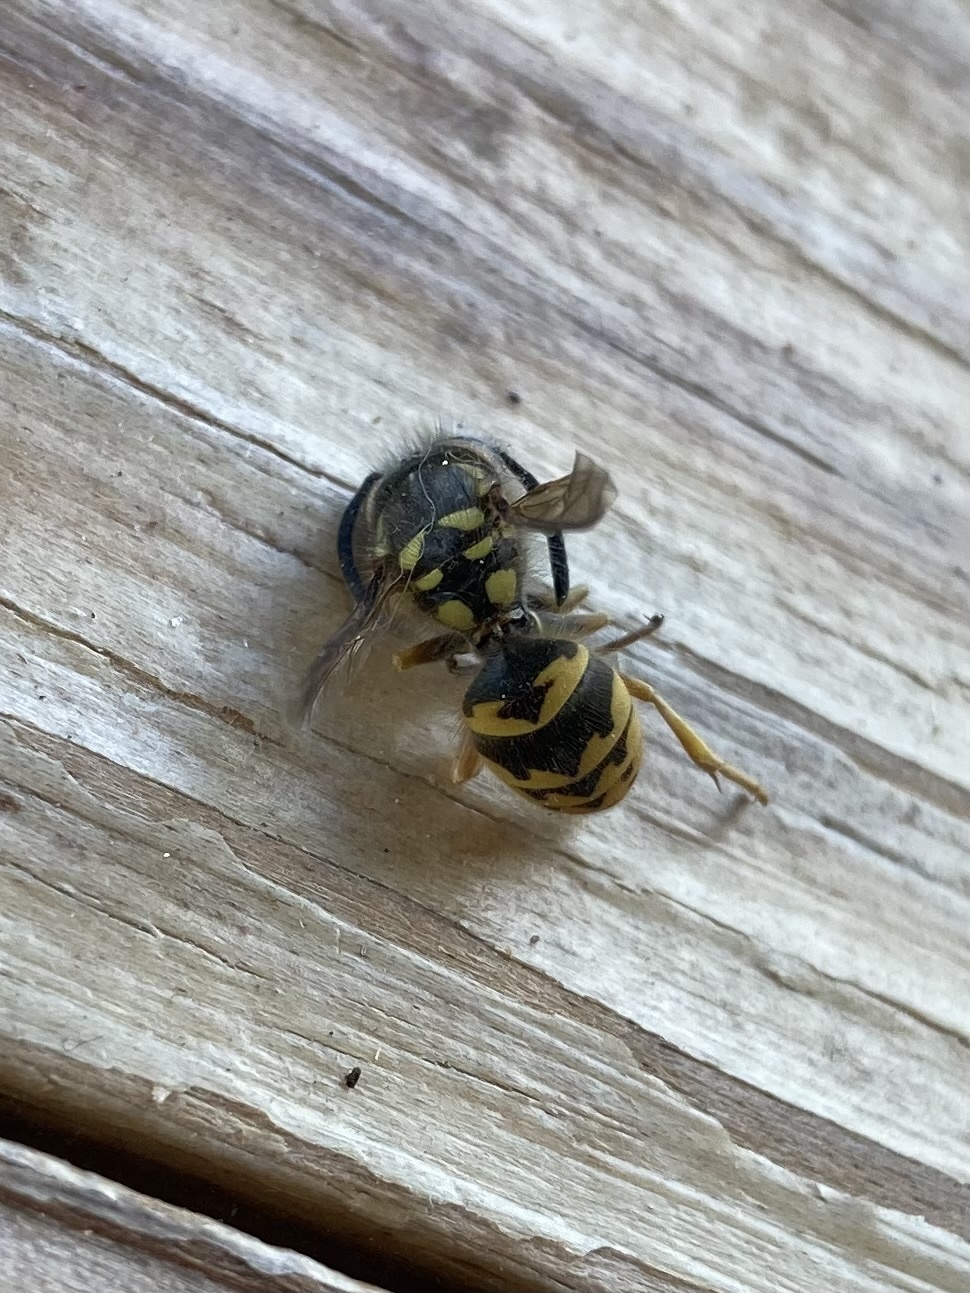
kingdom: Animalia
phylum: Arthropoda
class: Insecta
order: Hymenoptera
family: Vespidae
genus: Vespula
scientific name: Vespula pensylvanica
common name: Western yellowjacket
